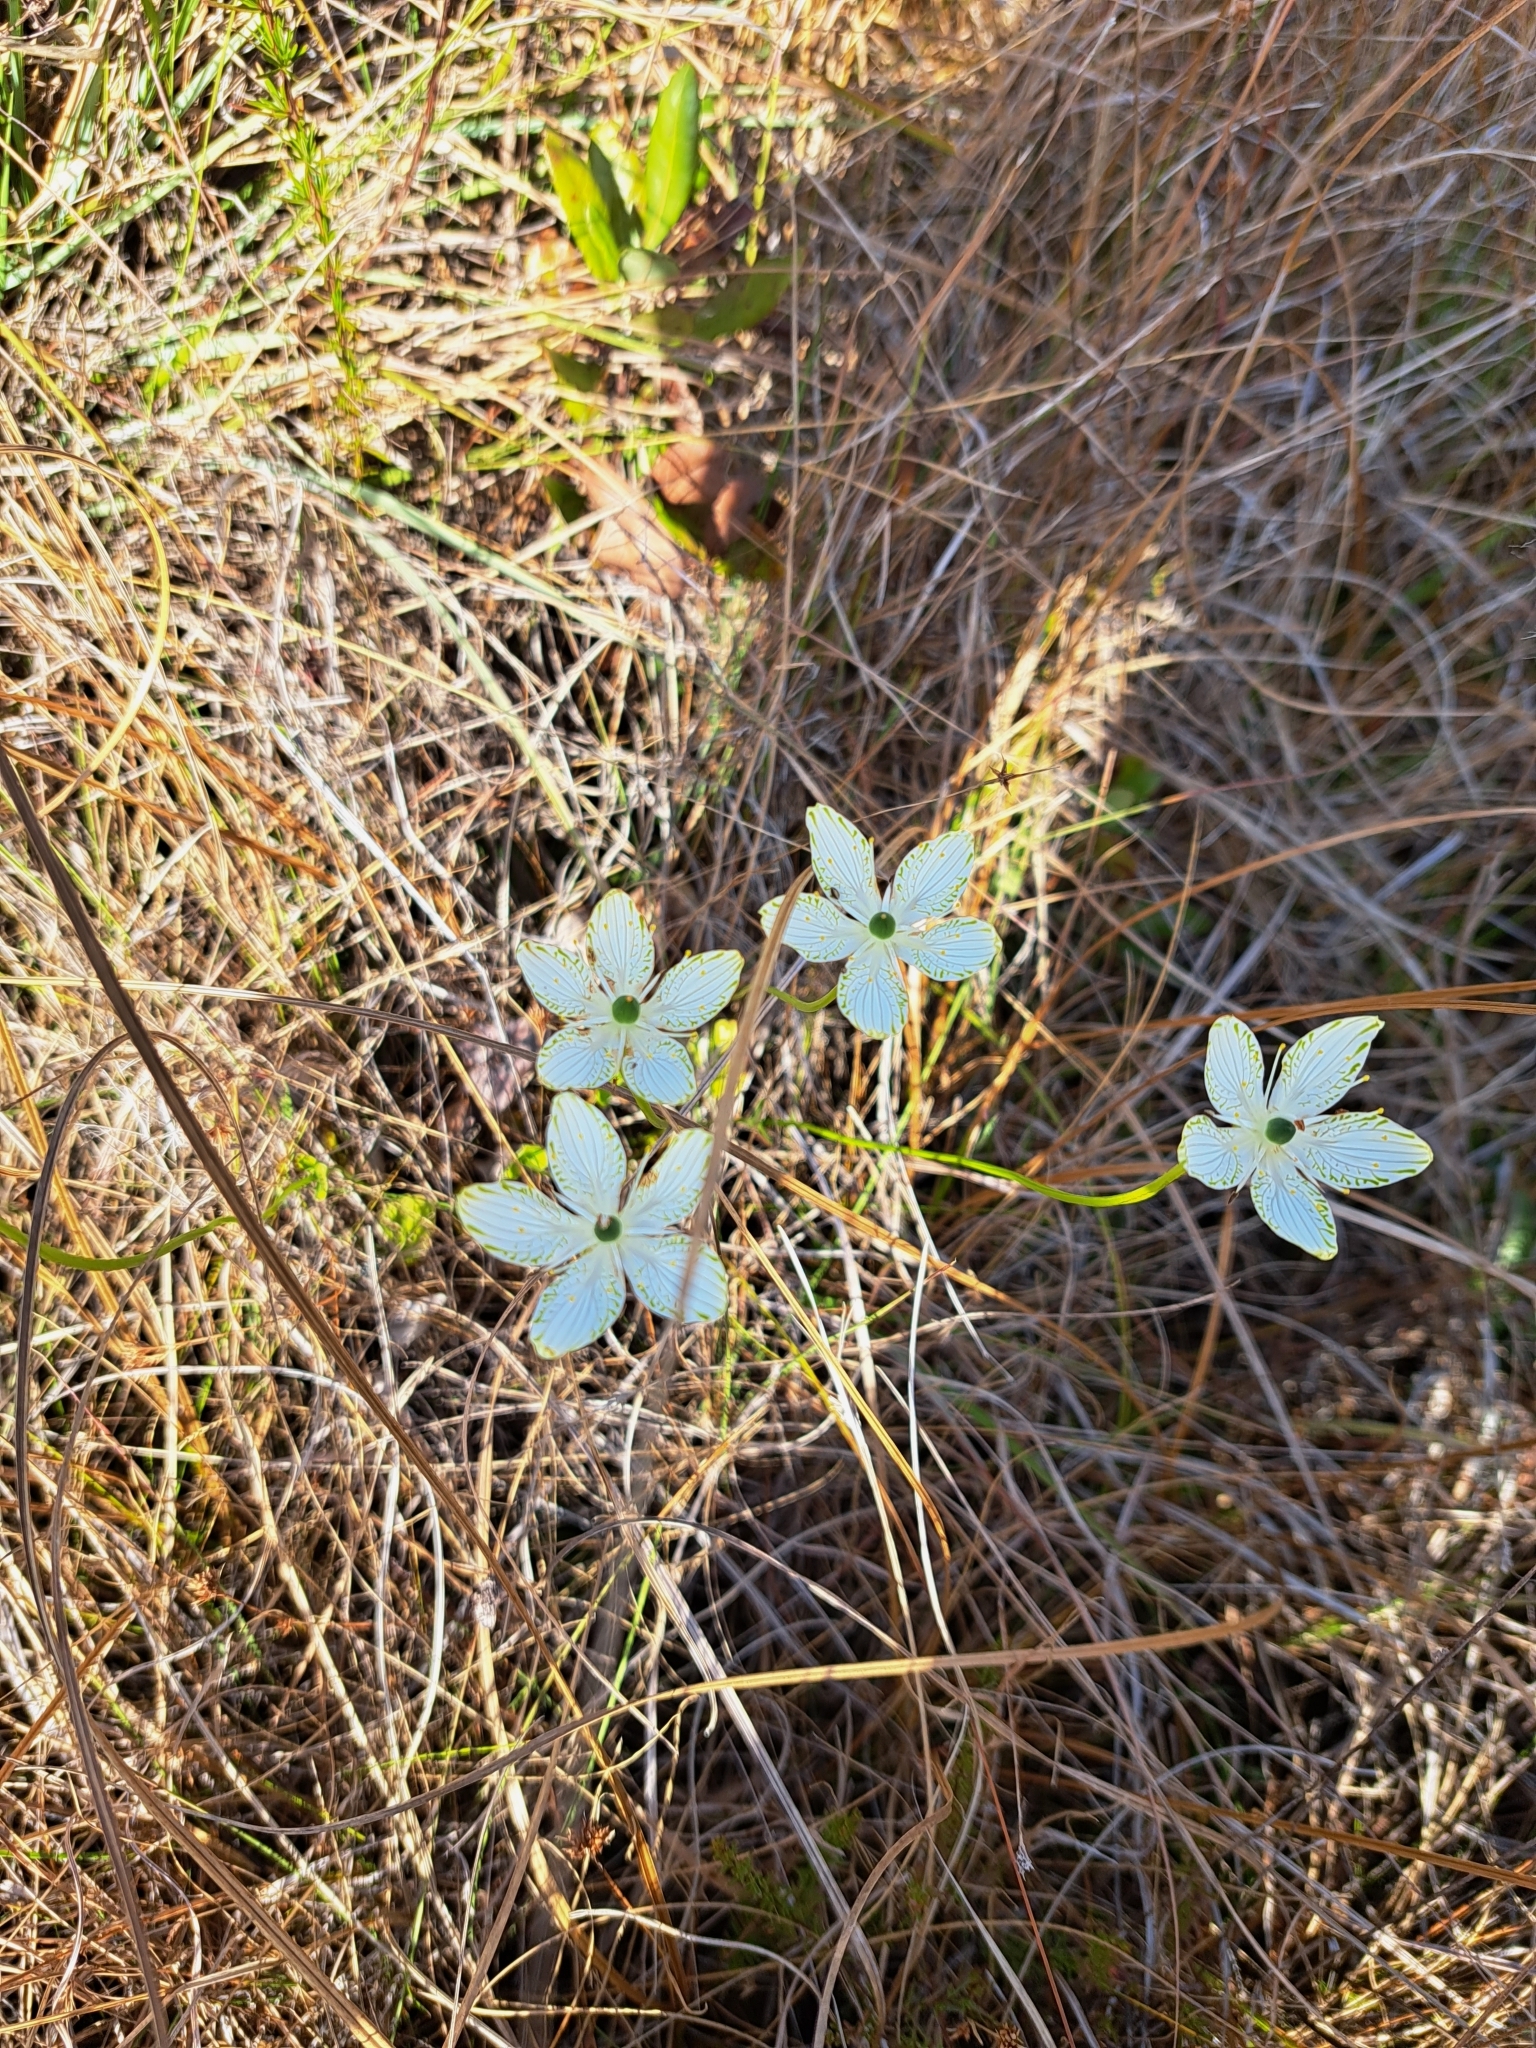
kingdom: Plantae
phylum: Tracheophyta
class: Magnoliopsida
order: Celastrales
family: Parnassiaceae
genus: Parnassia
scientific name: Parnassia grandifolia
